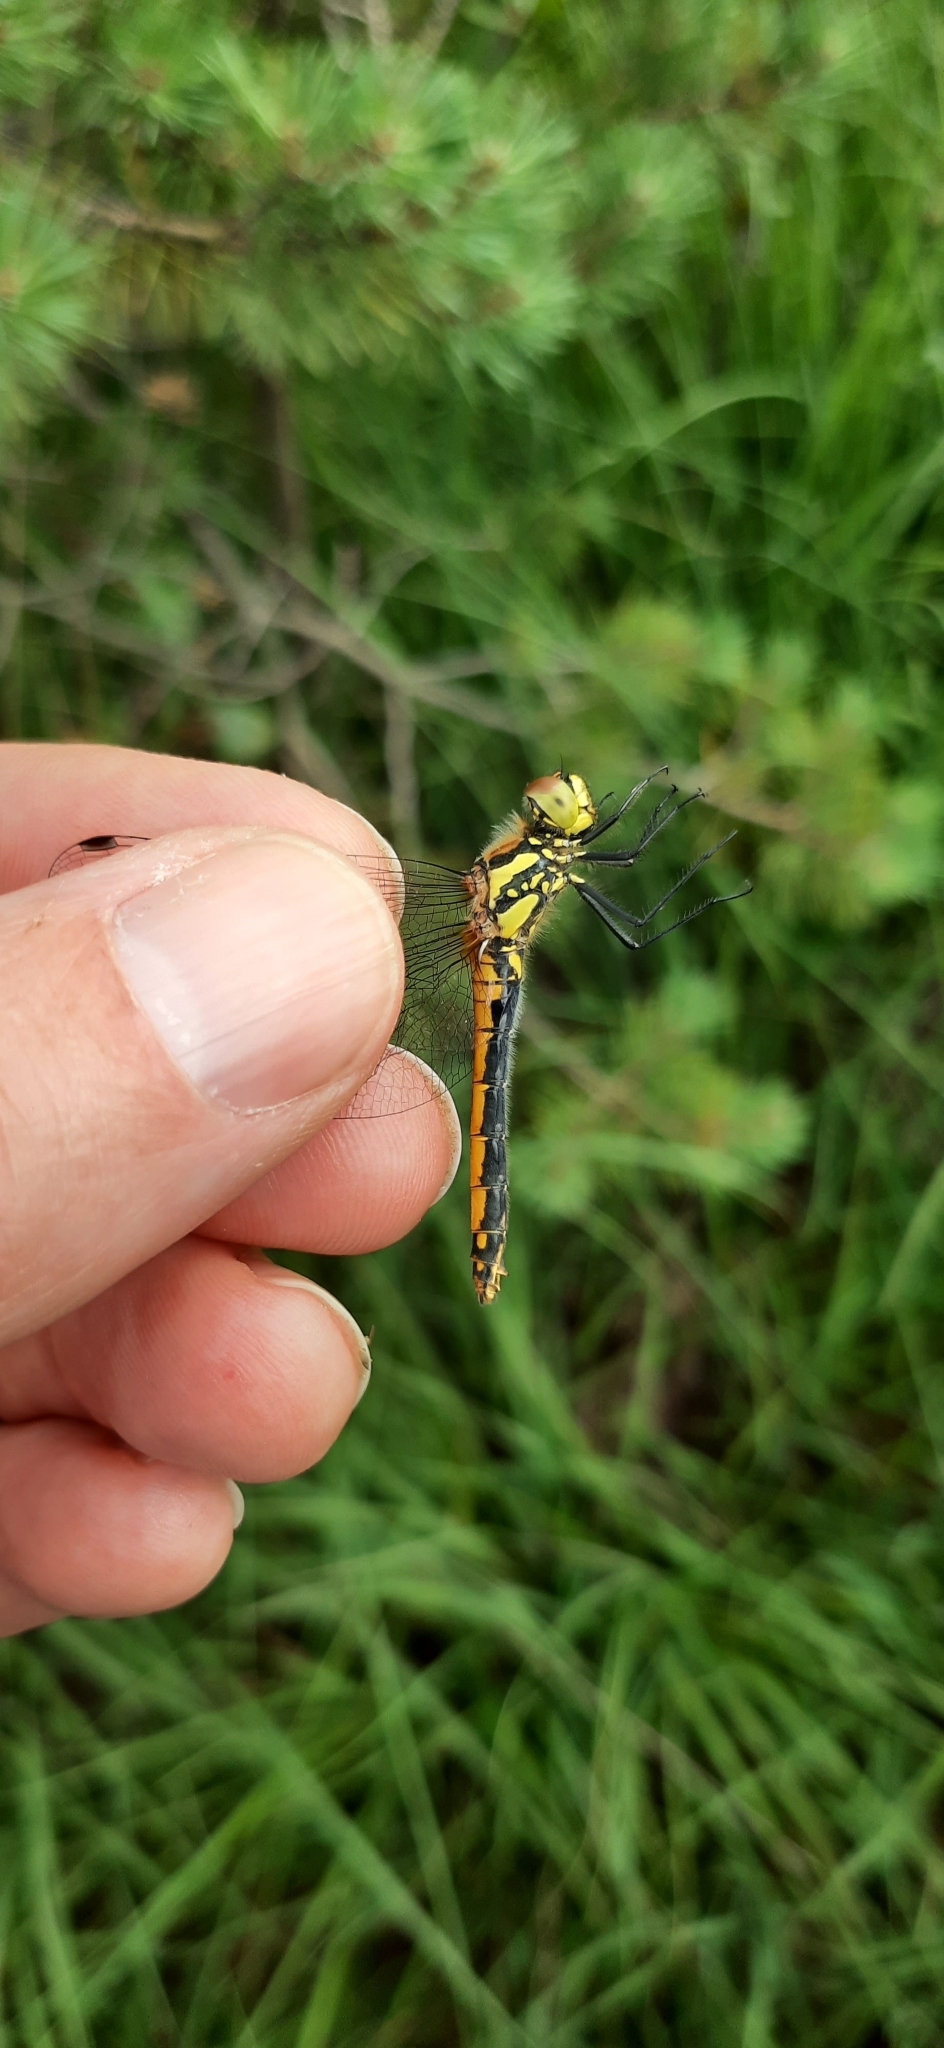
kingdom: Animalia
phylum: Arthropoda
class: Insecta
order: Odonata
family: Libellulidae
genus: Sympetrum
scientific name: Sympetrum danae
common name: Black darter
